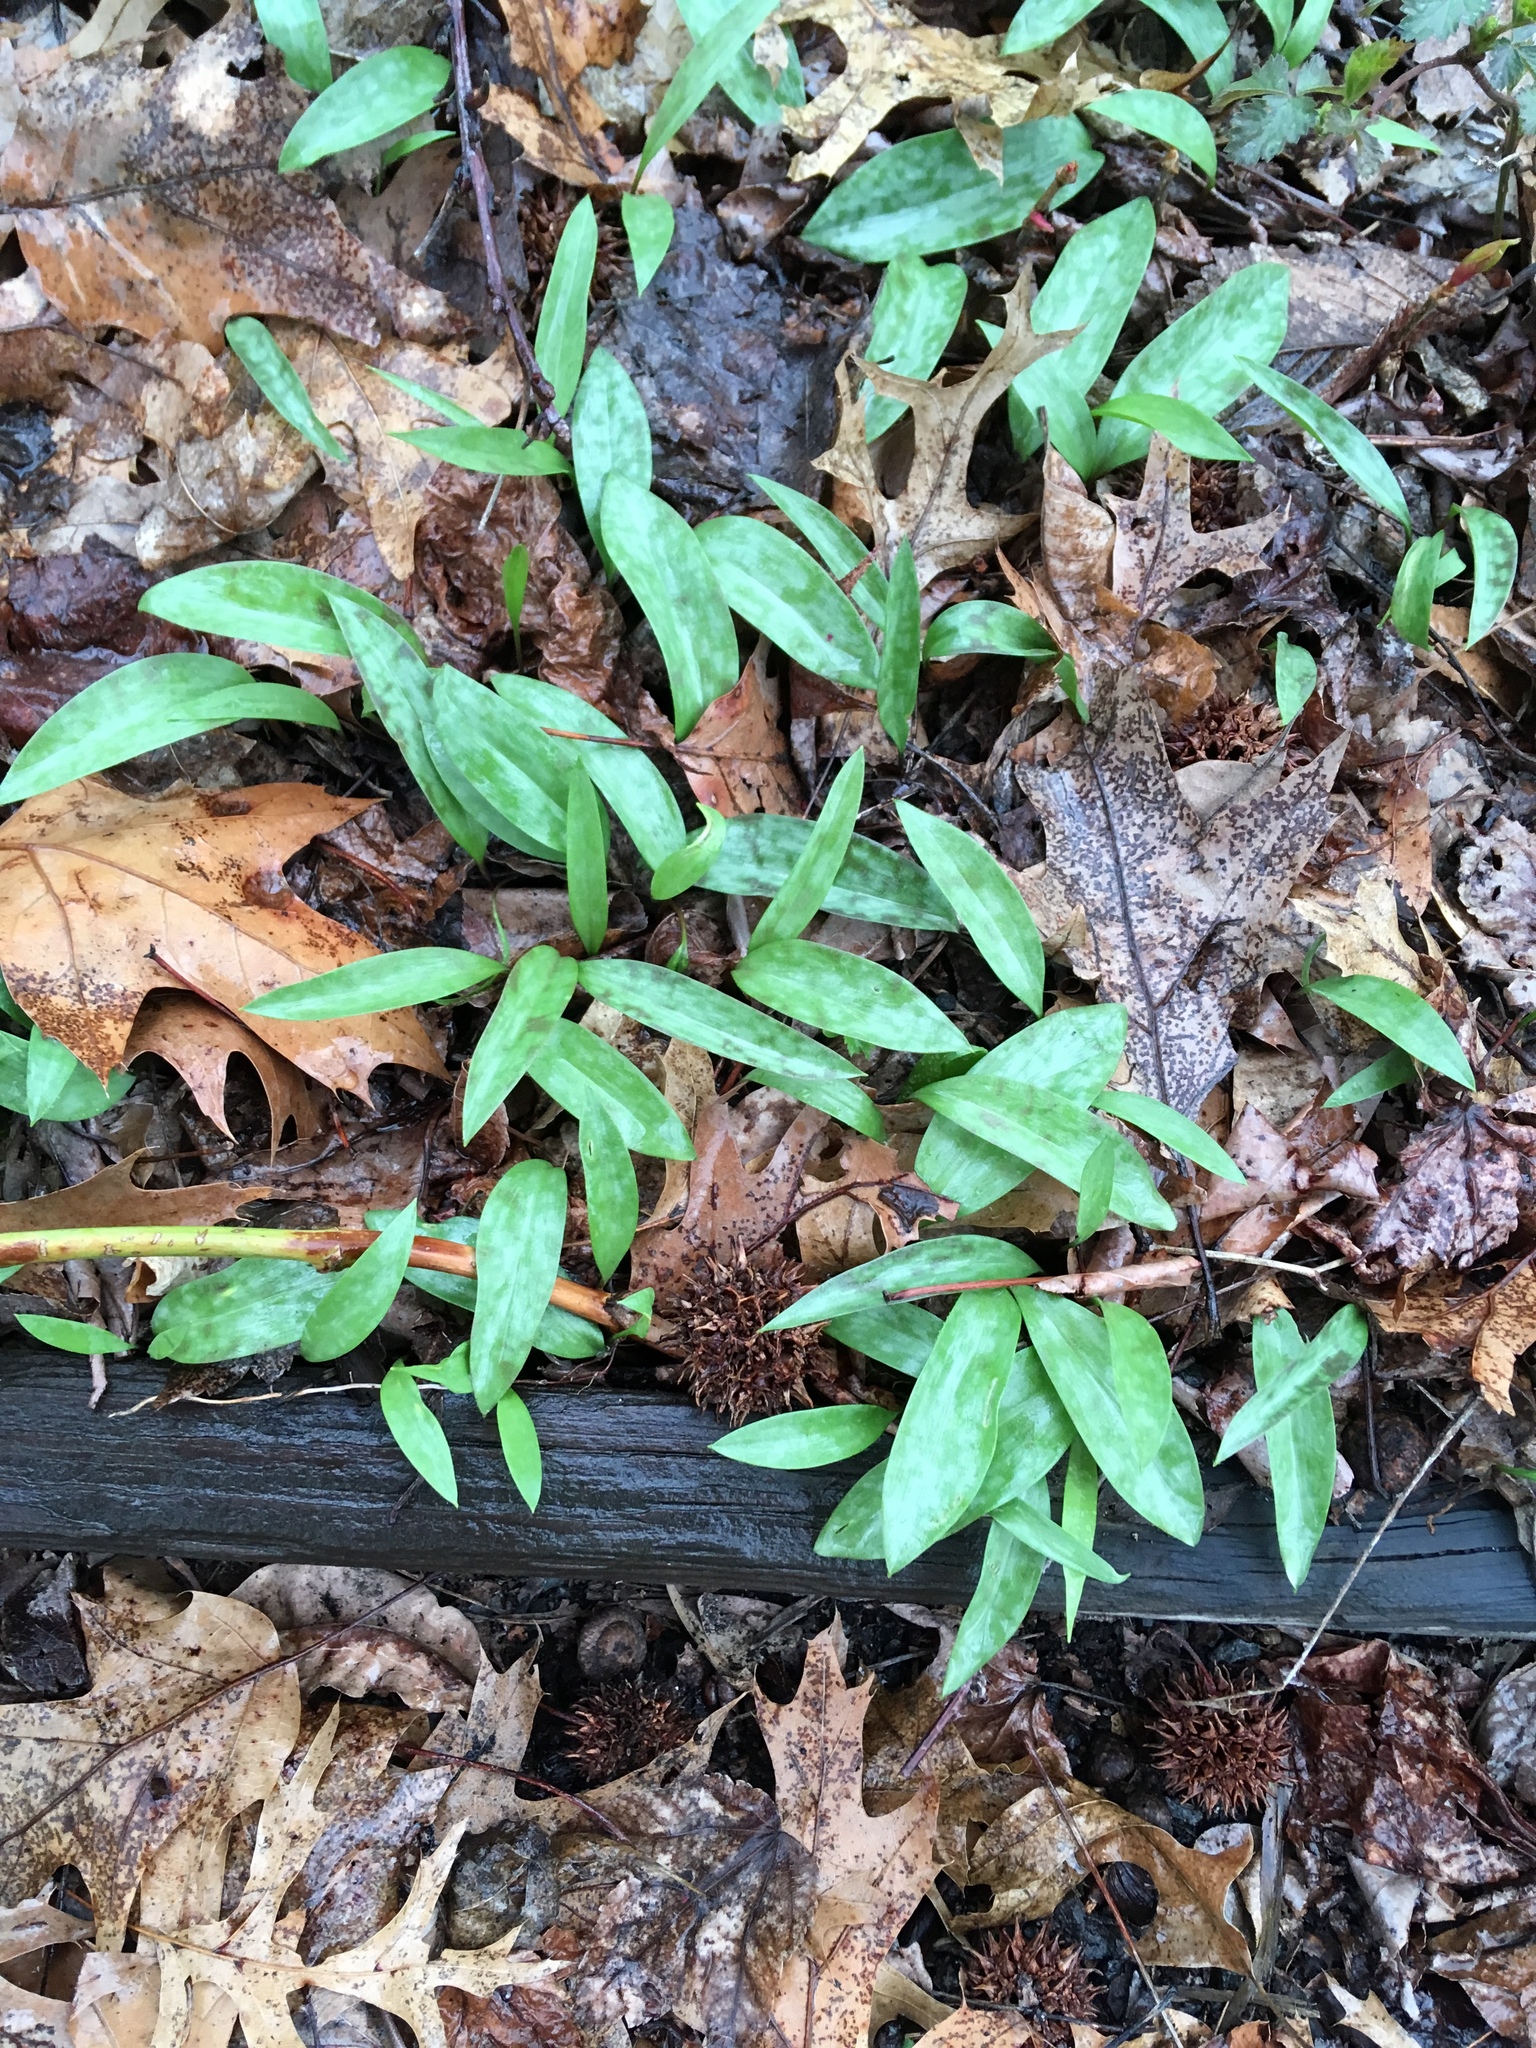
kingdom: Plantae
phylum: Tracheophyta
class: Liliopsida
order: Liliales
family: Liliaceae
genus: Erythronium
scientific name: Erythronium americanum
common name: Yellow adder's-tongue
